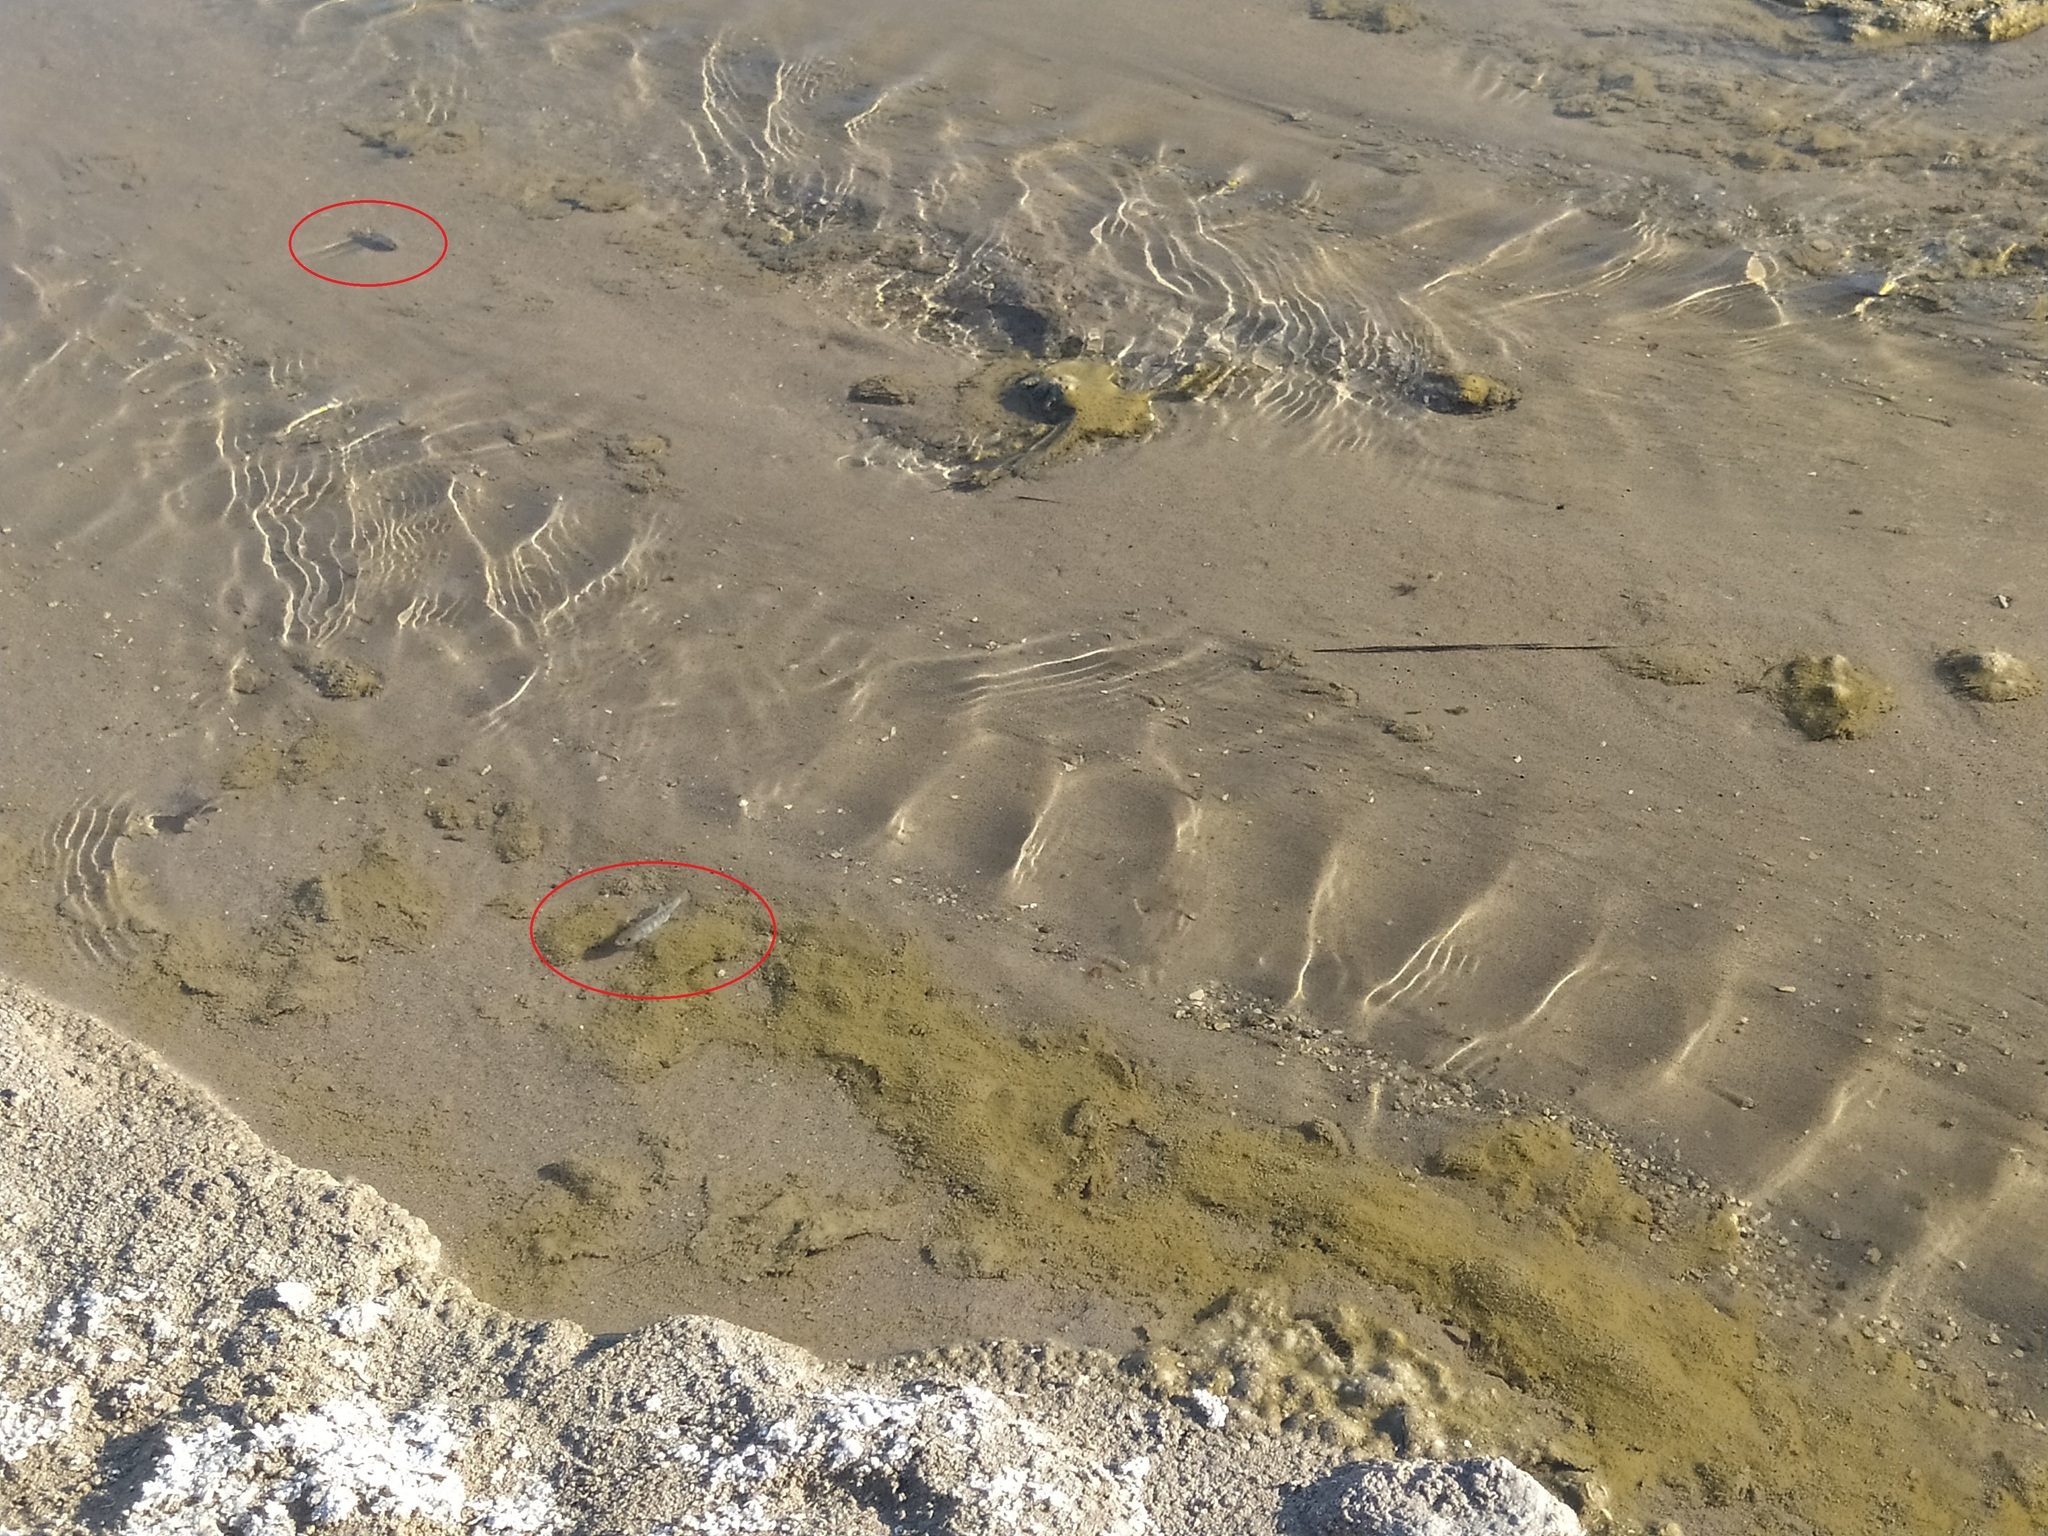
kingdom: Animalia
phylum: Chordata
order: Cyprinodontiformes
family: Cyprinodontidae
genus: Cyprinodon
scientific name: Cyprinodon salinus
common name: Cottonball marsh pupfish
